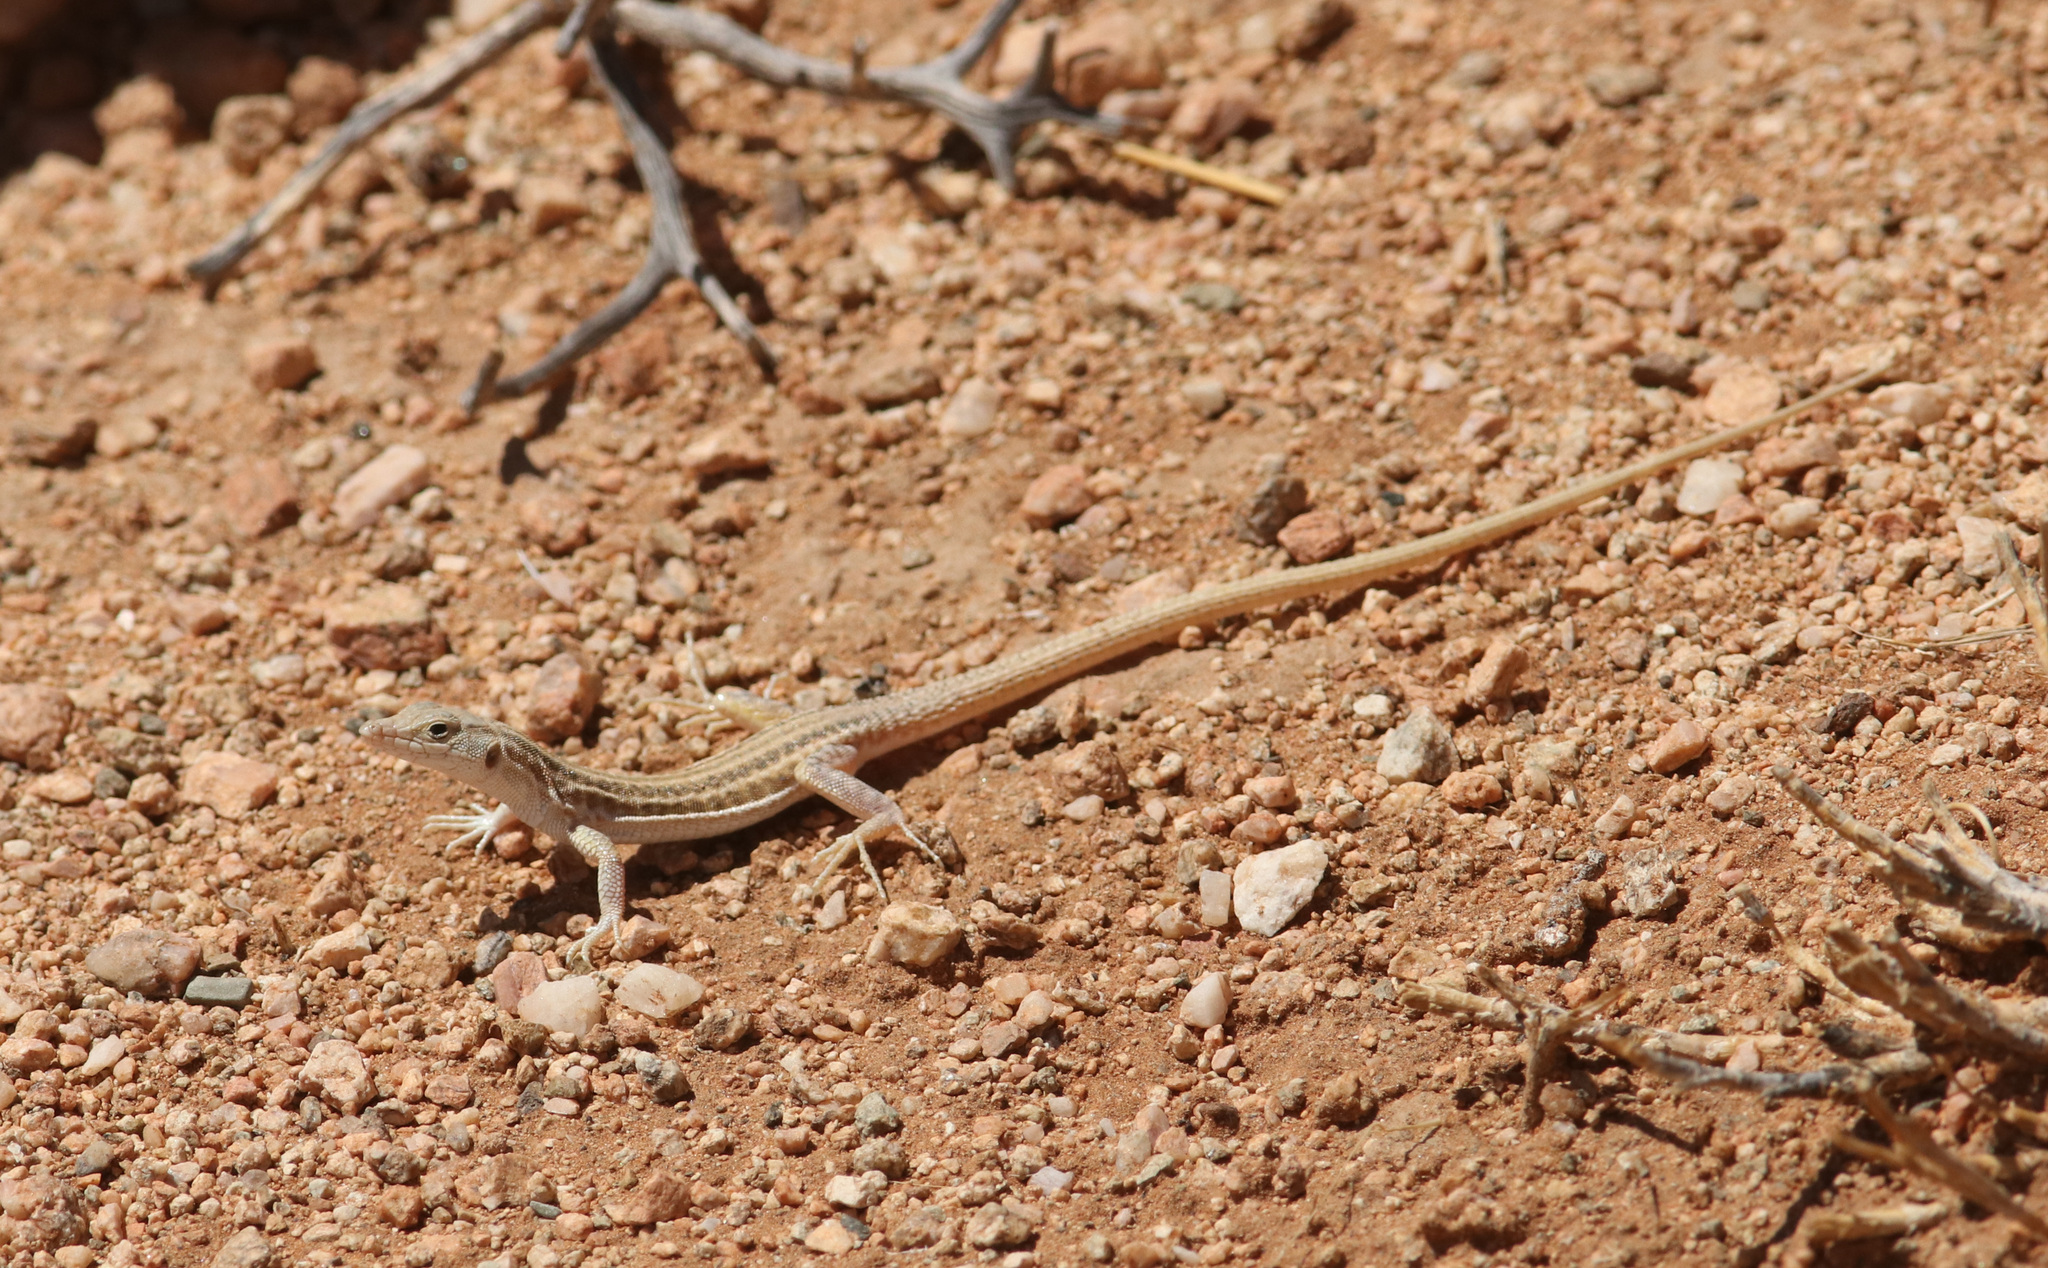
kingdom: Animalia
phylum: Chordata
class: Squamata
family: Lacertidae
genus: Pedioplanis
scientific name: Pedioplanis namaquensis
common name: Namaqua sand lizard
